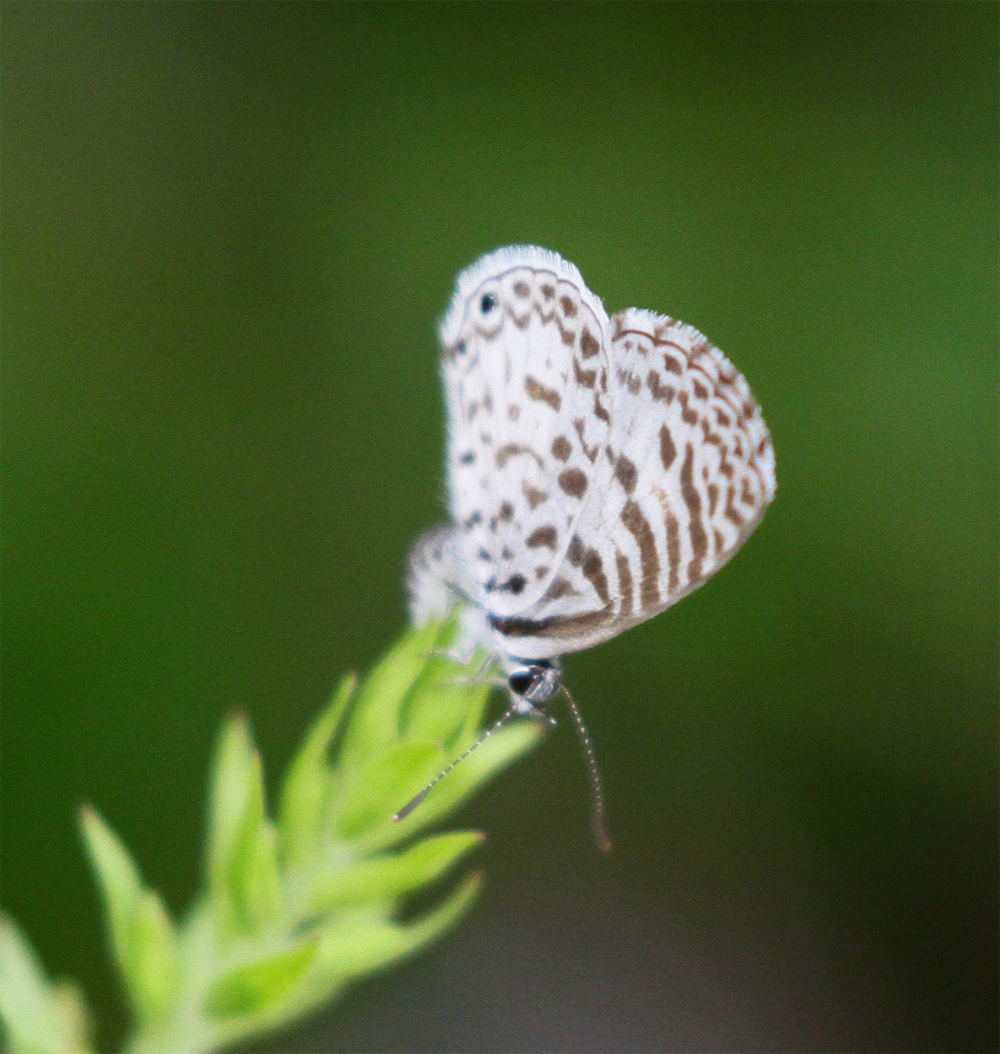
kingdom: Animalia
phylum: Arthropoda
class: Insecta
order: Lepidoptera
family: Lycaenidae
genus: Leptotes
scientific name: Leptotes cassius
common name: Cassius blue
